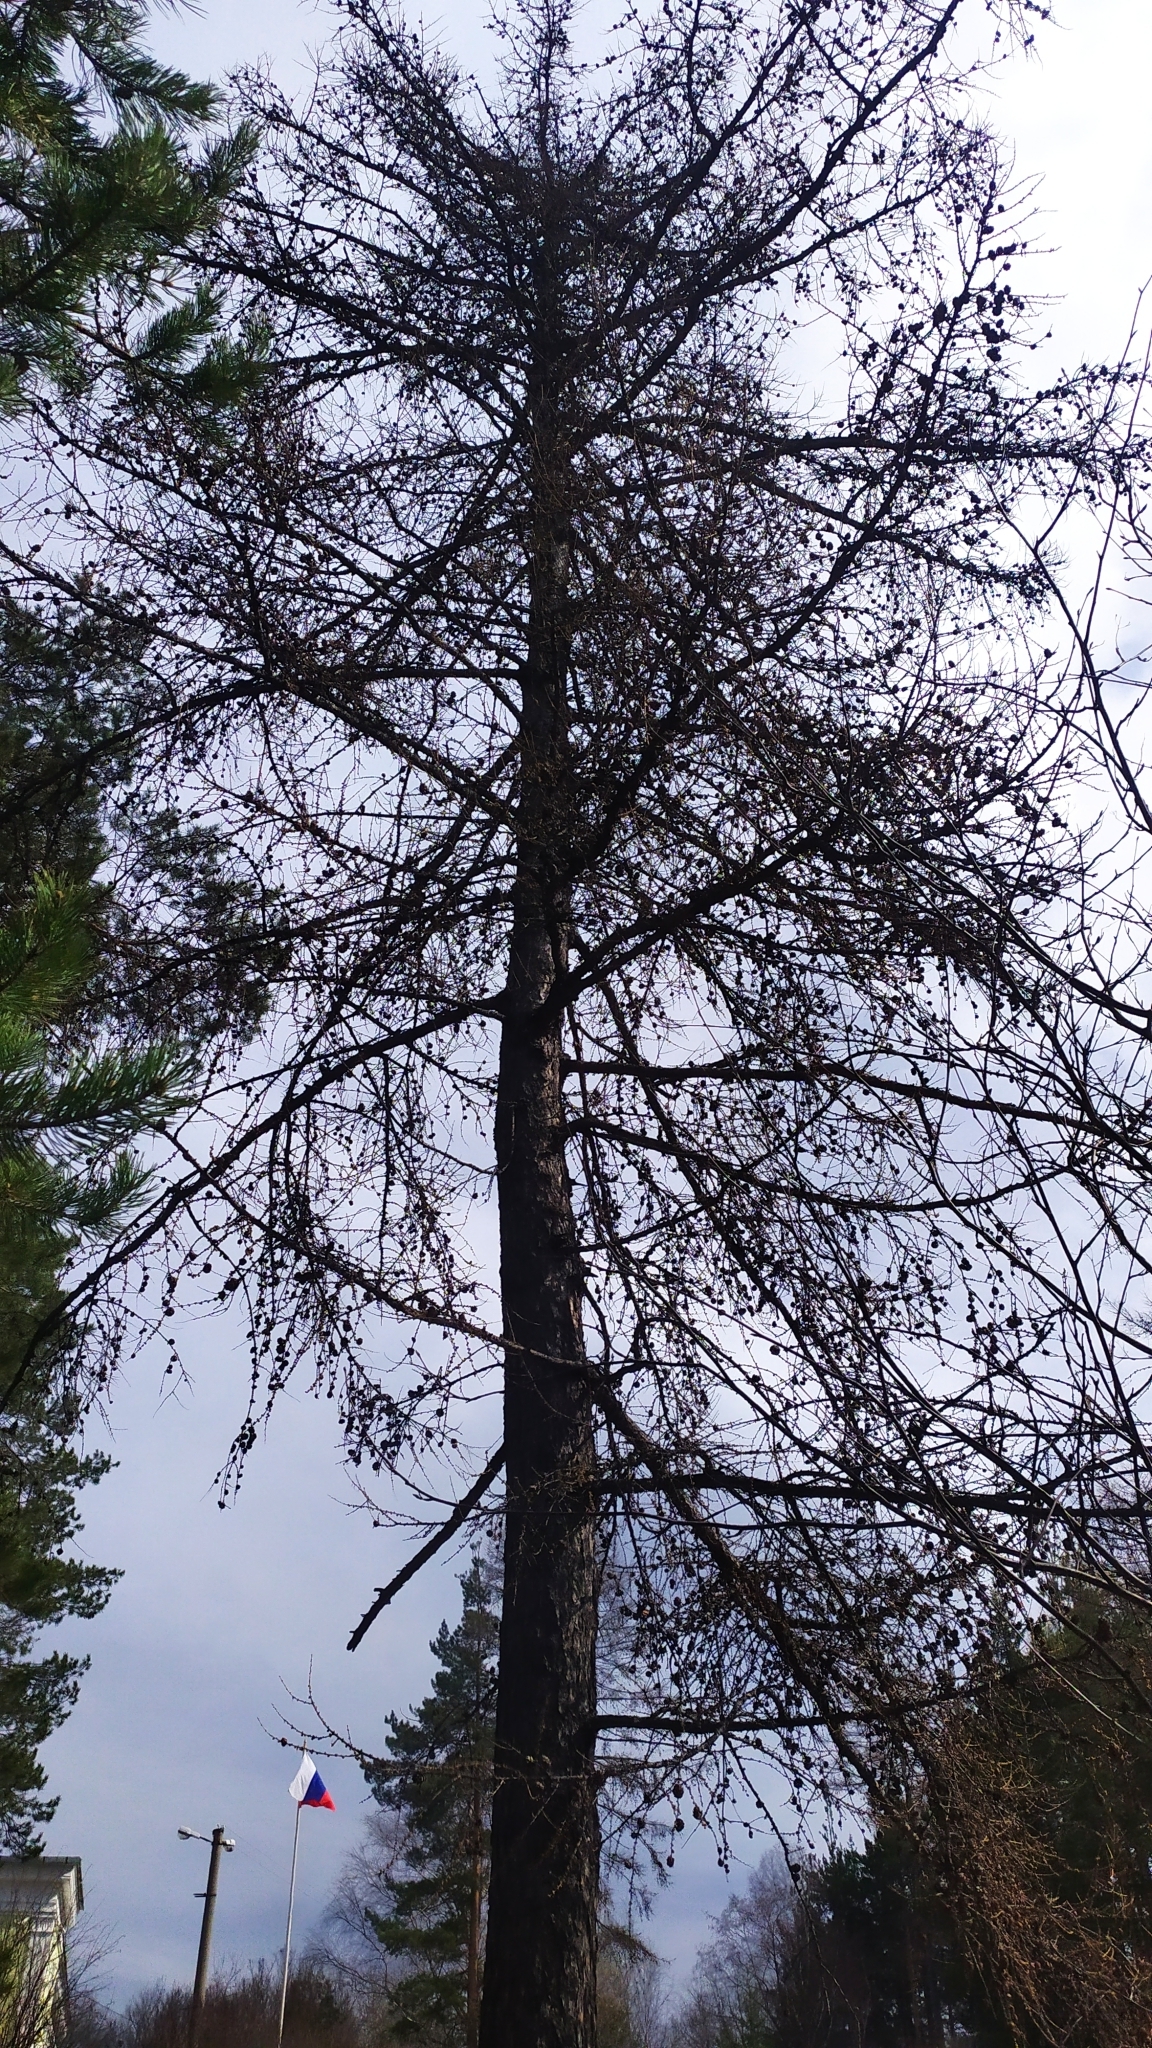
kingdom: Plantae
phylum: Tracheophyta
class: Pinopsida
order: Pinales
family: Pinaceae
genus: Larix
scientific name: Larix sibirica
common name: Siberian larch
